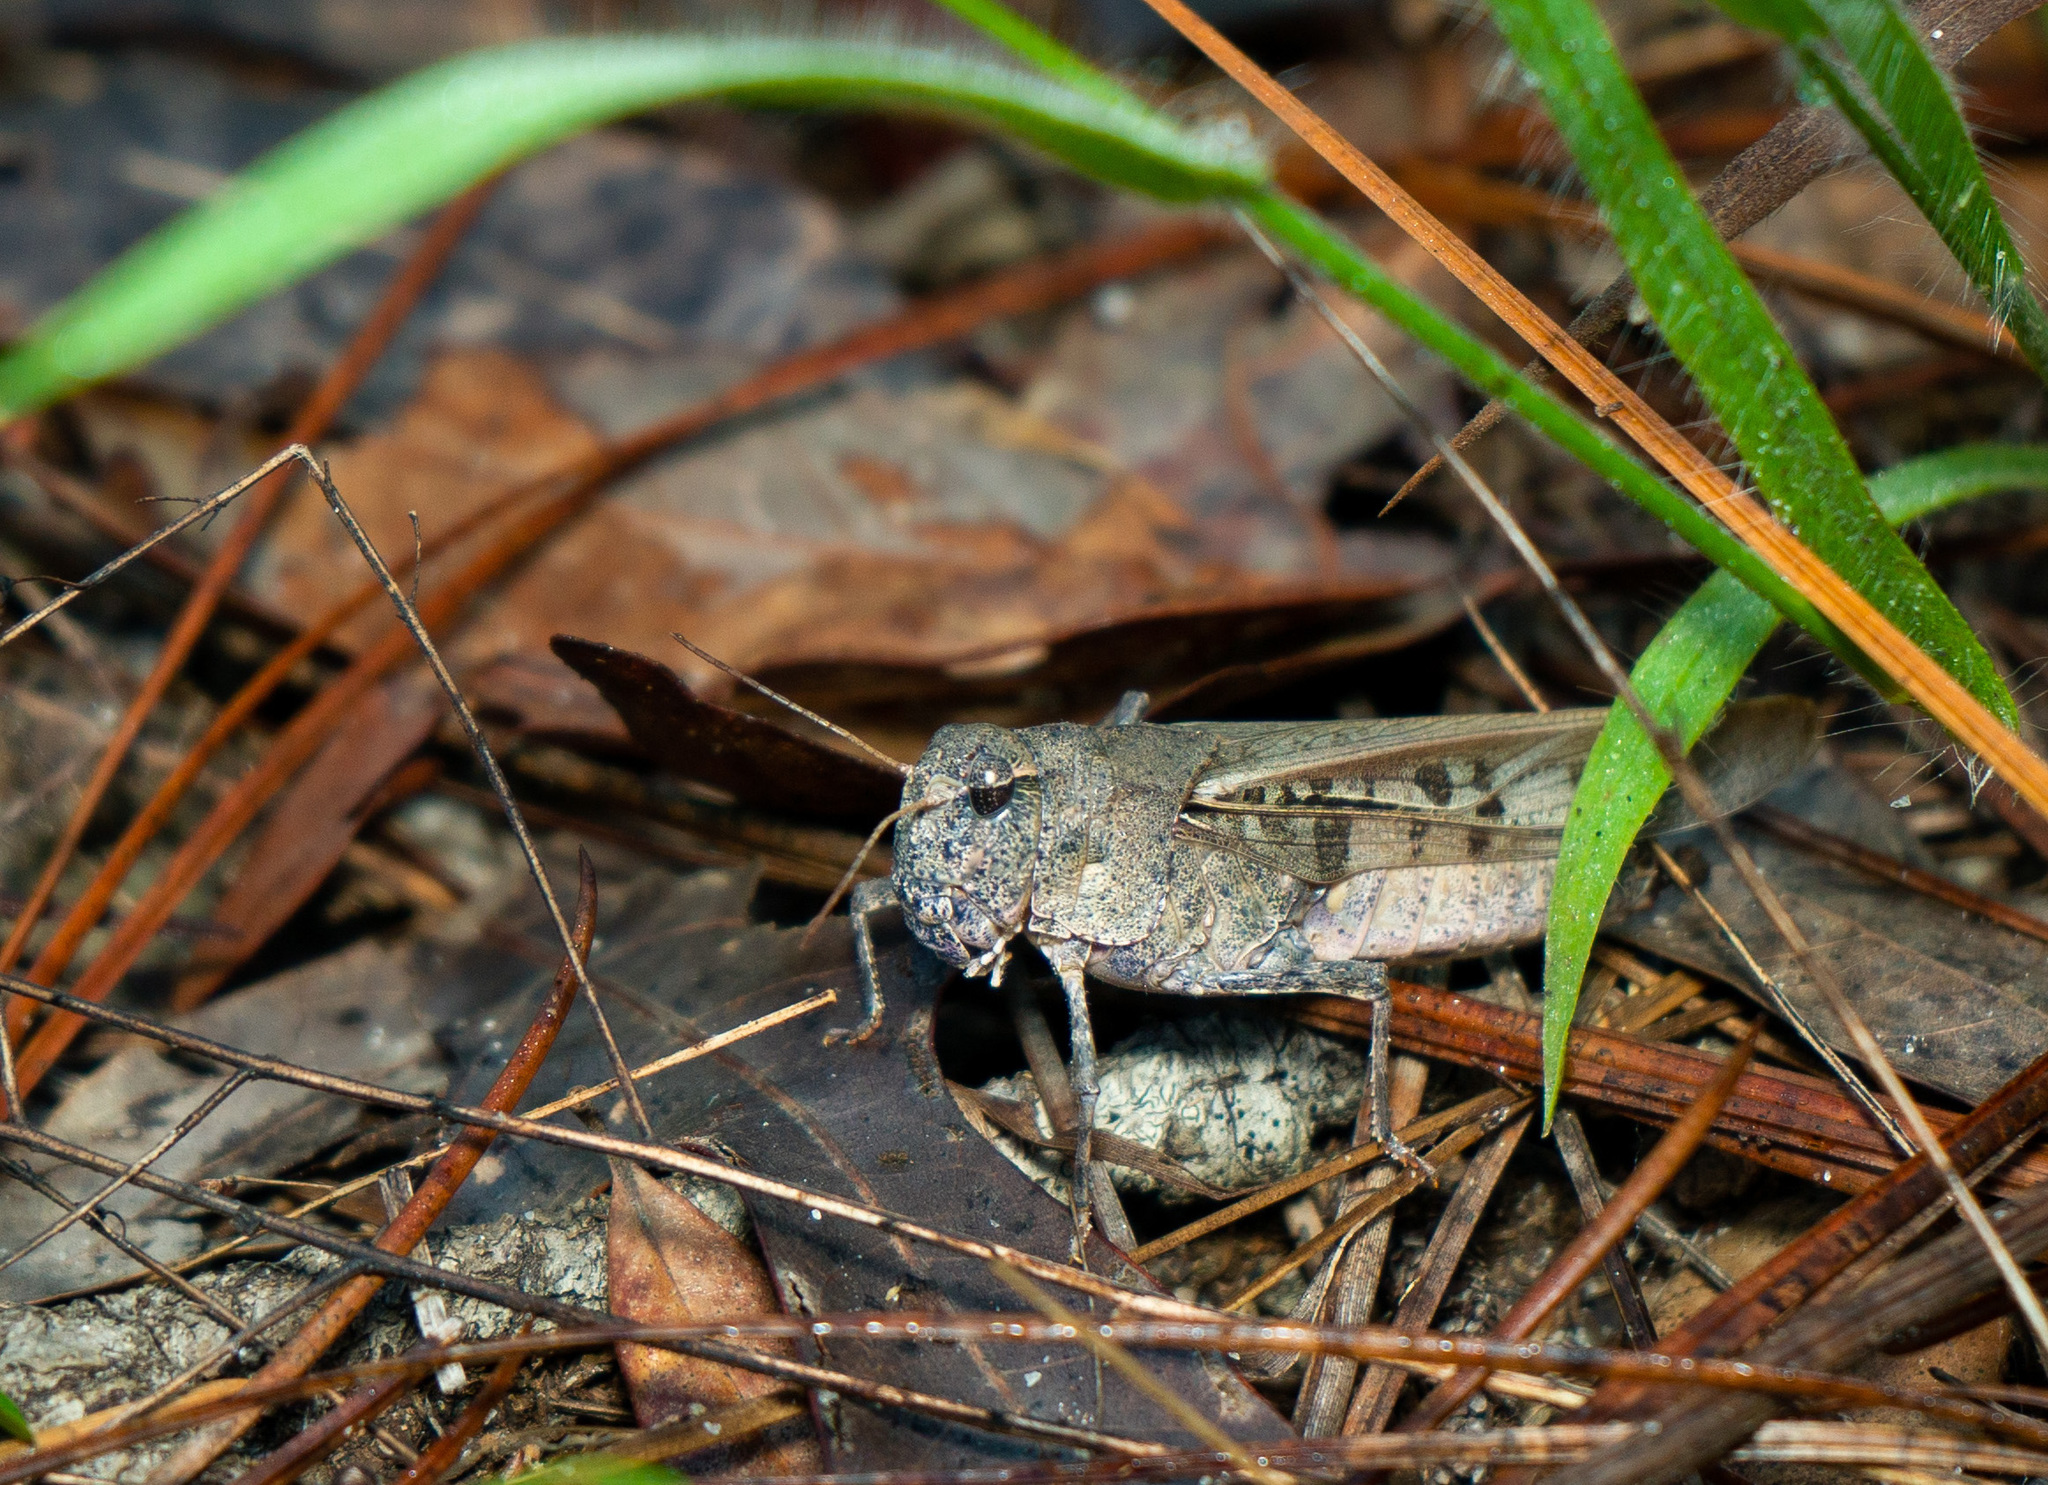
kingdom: Animalia
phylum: Arthropoda
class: Insecta
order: Orthoptera
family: Acrididae
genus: Pardalophora
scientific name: Pardalophora phoenicoptera
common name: Orange-winged grasshopper
